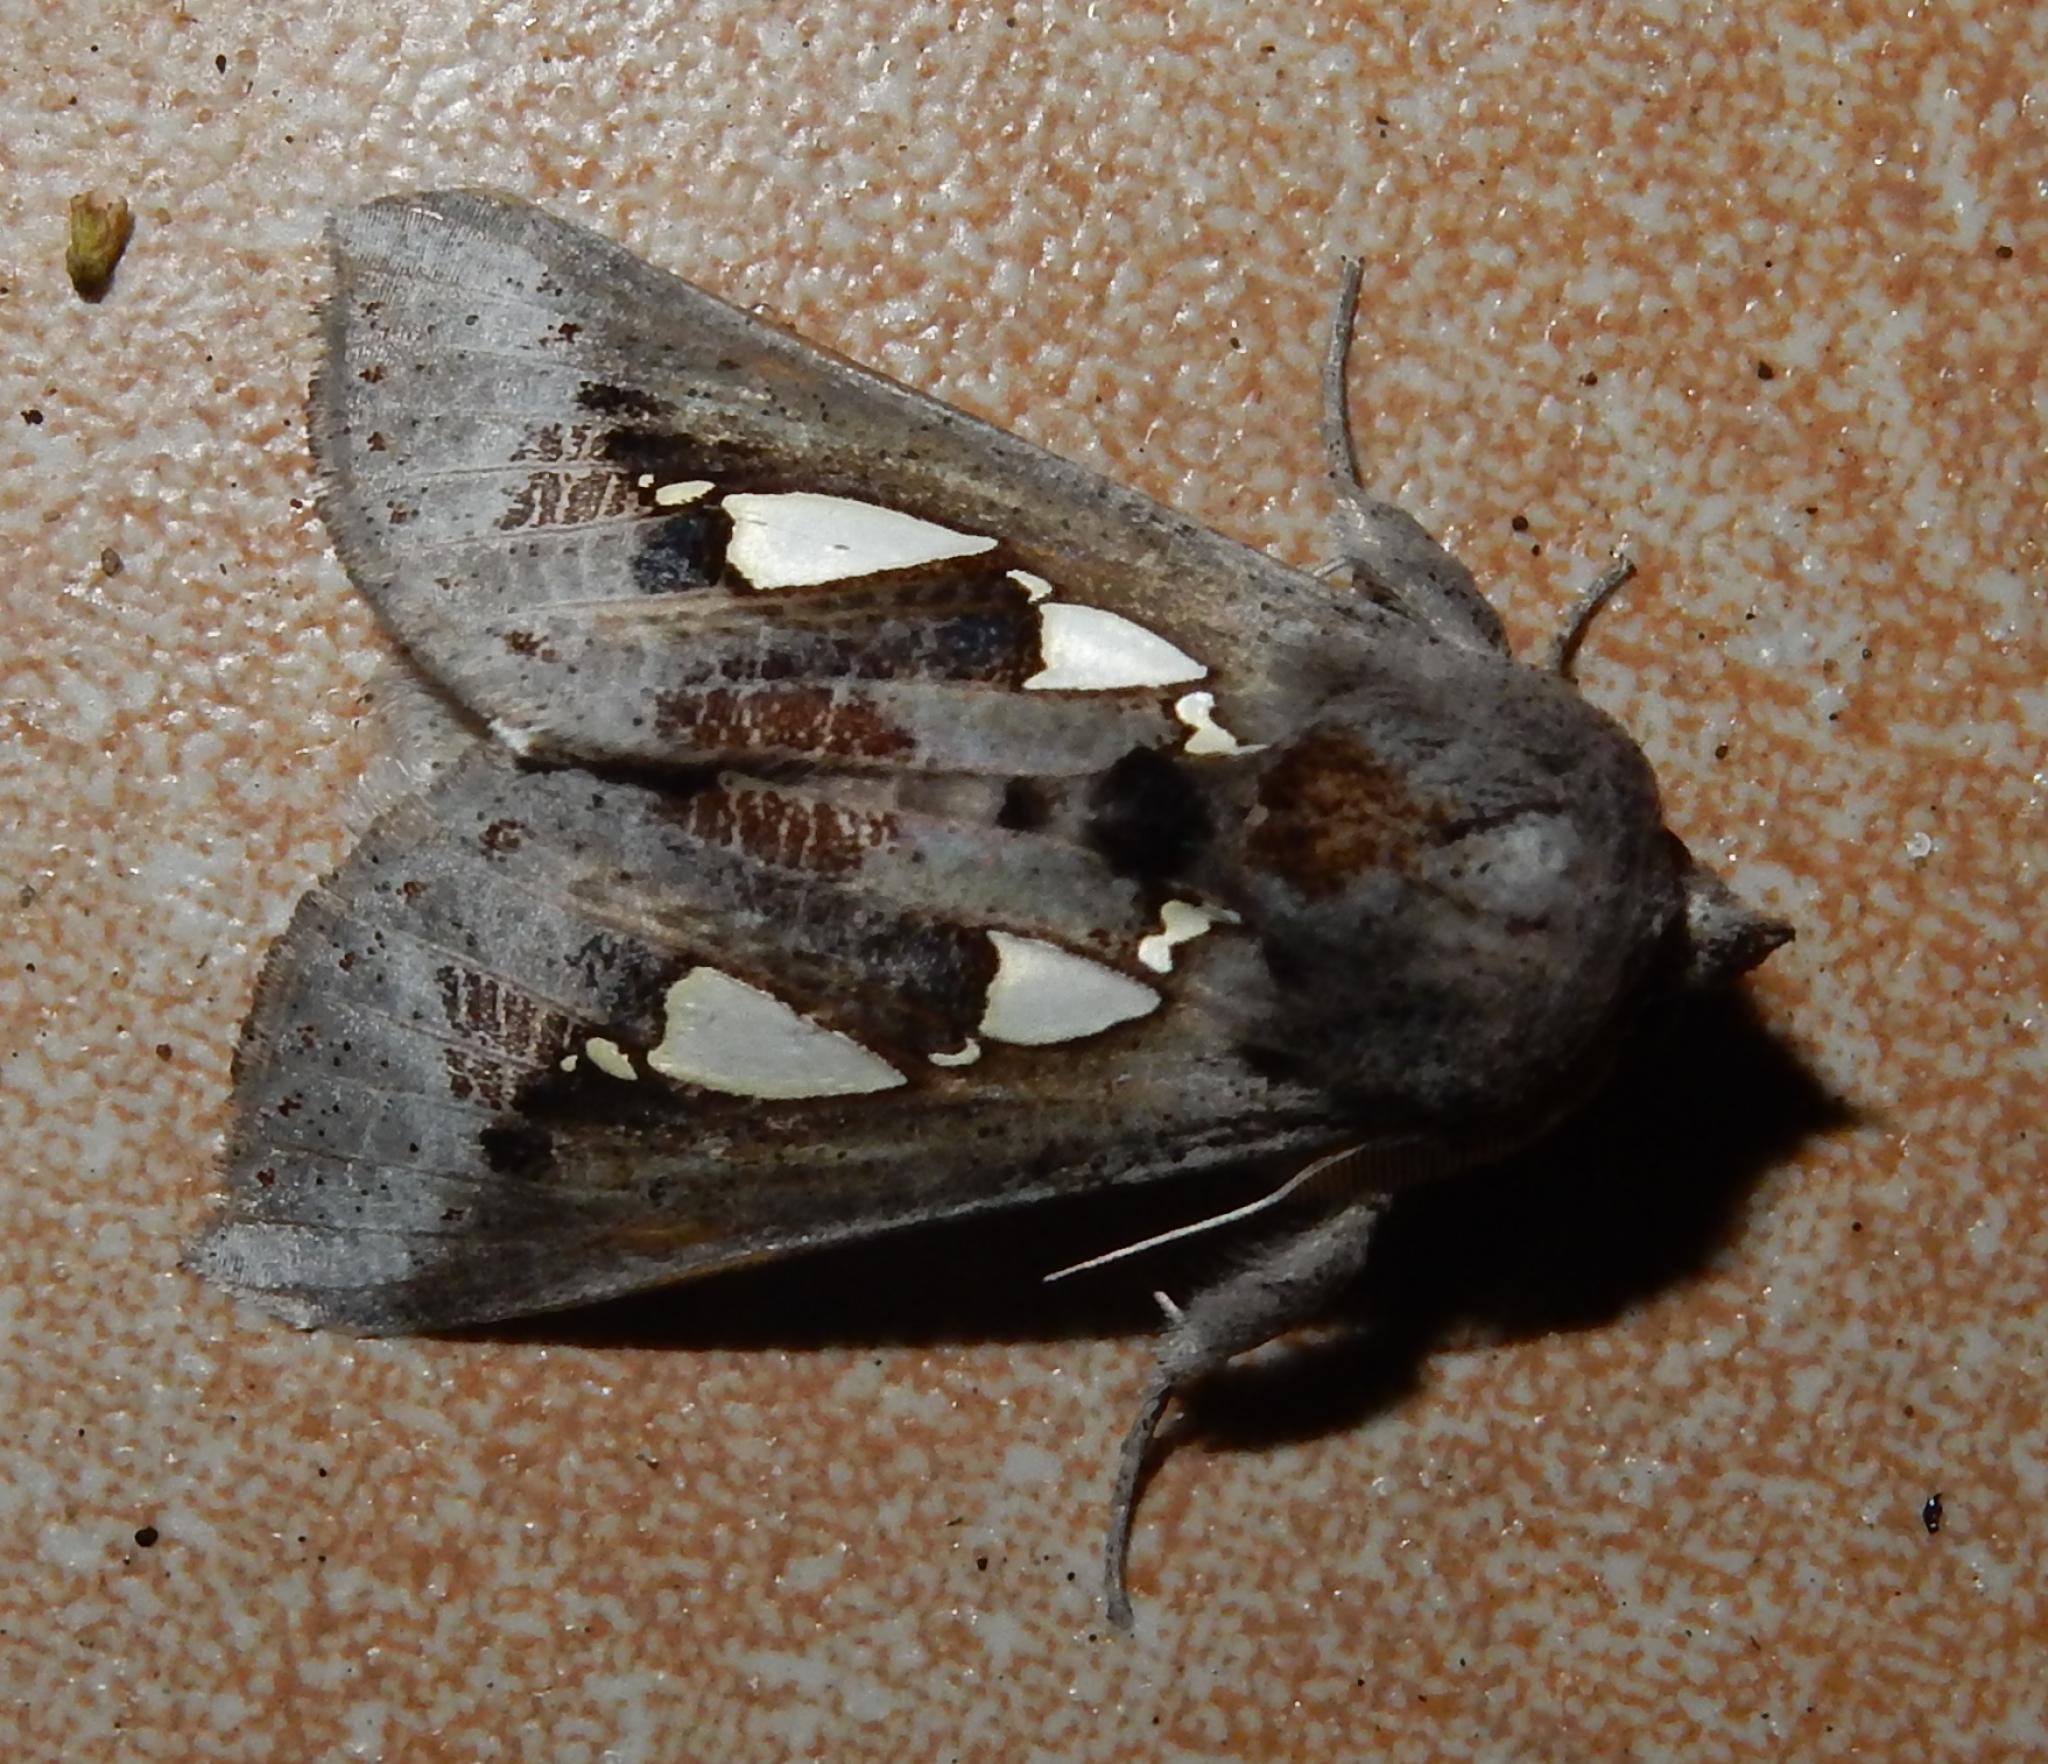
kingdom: Animalia
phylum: Arthropoda
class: Insecta
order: Lepidoptera
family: Erebidae
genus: Antiophlebia
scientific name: Antiophlebia bracteata
